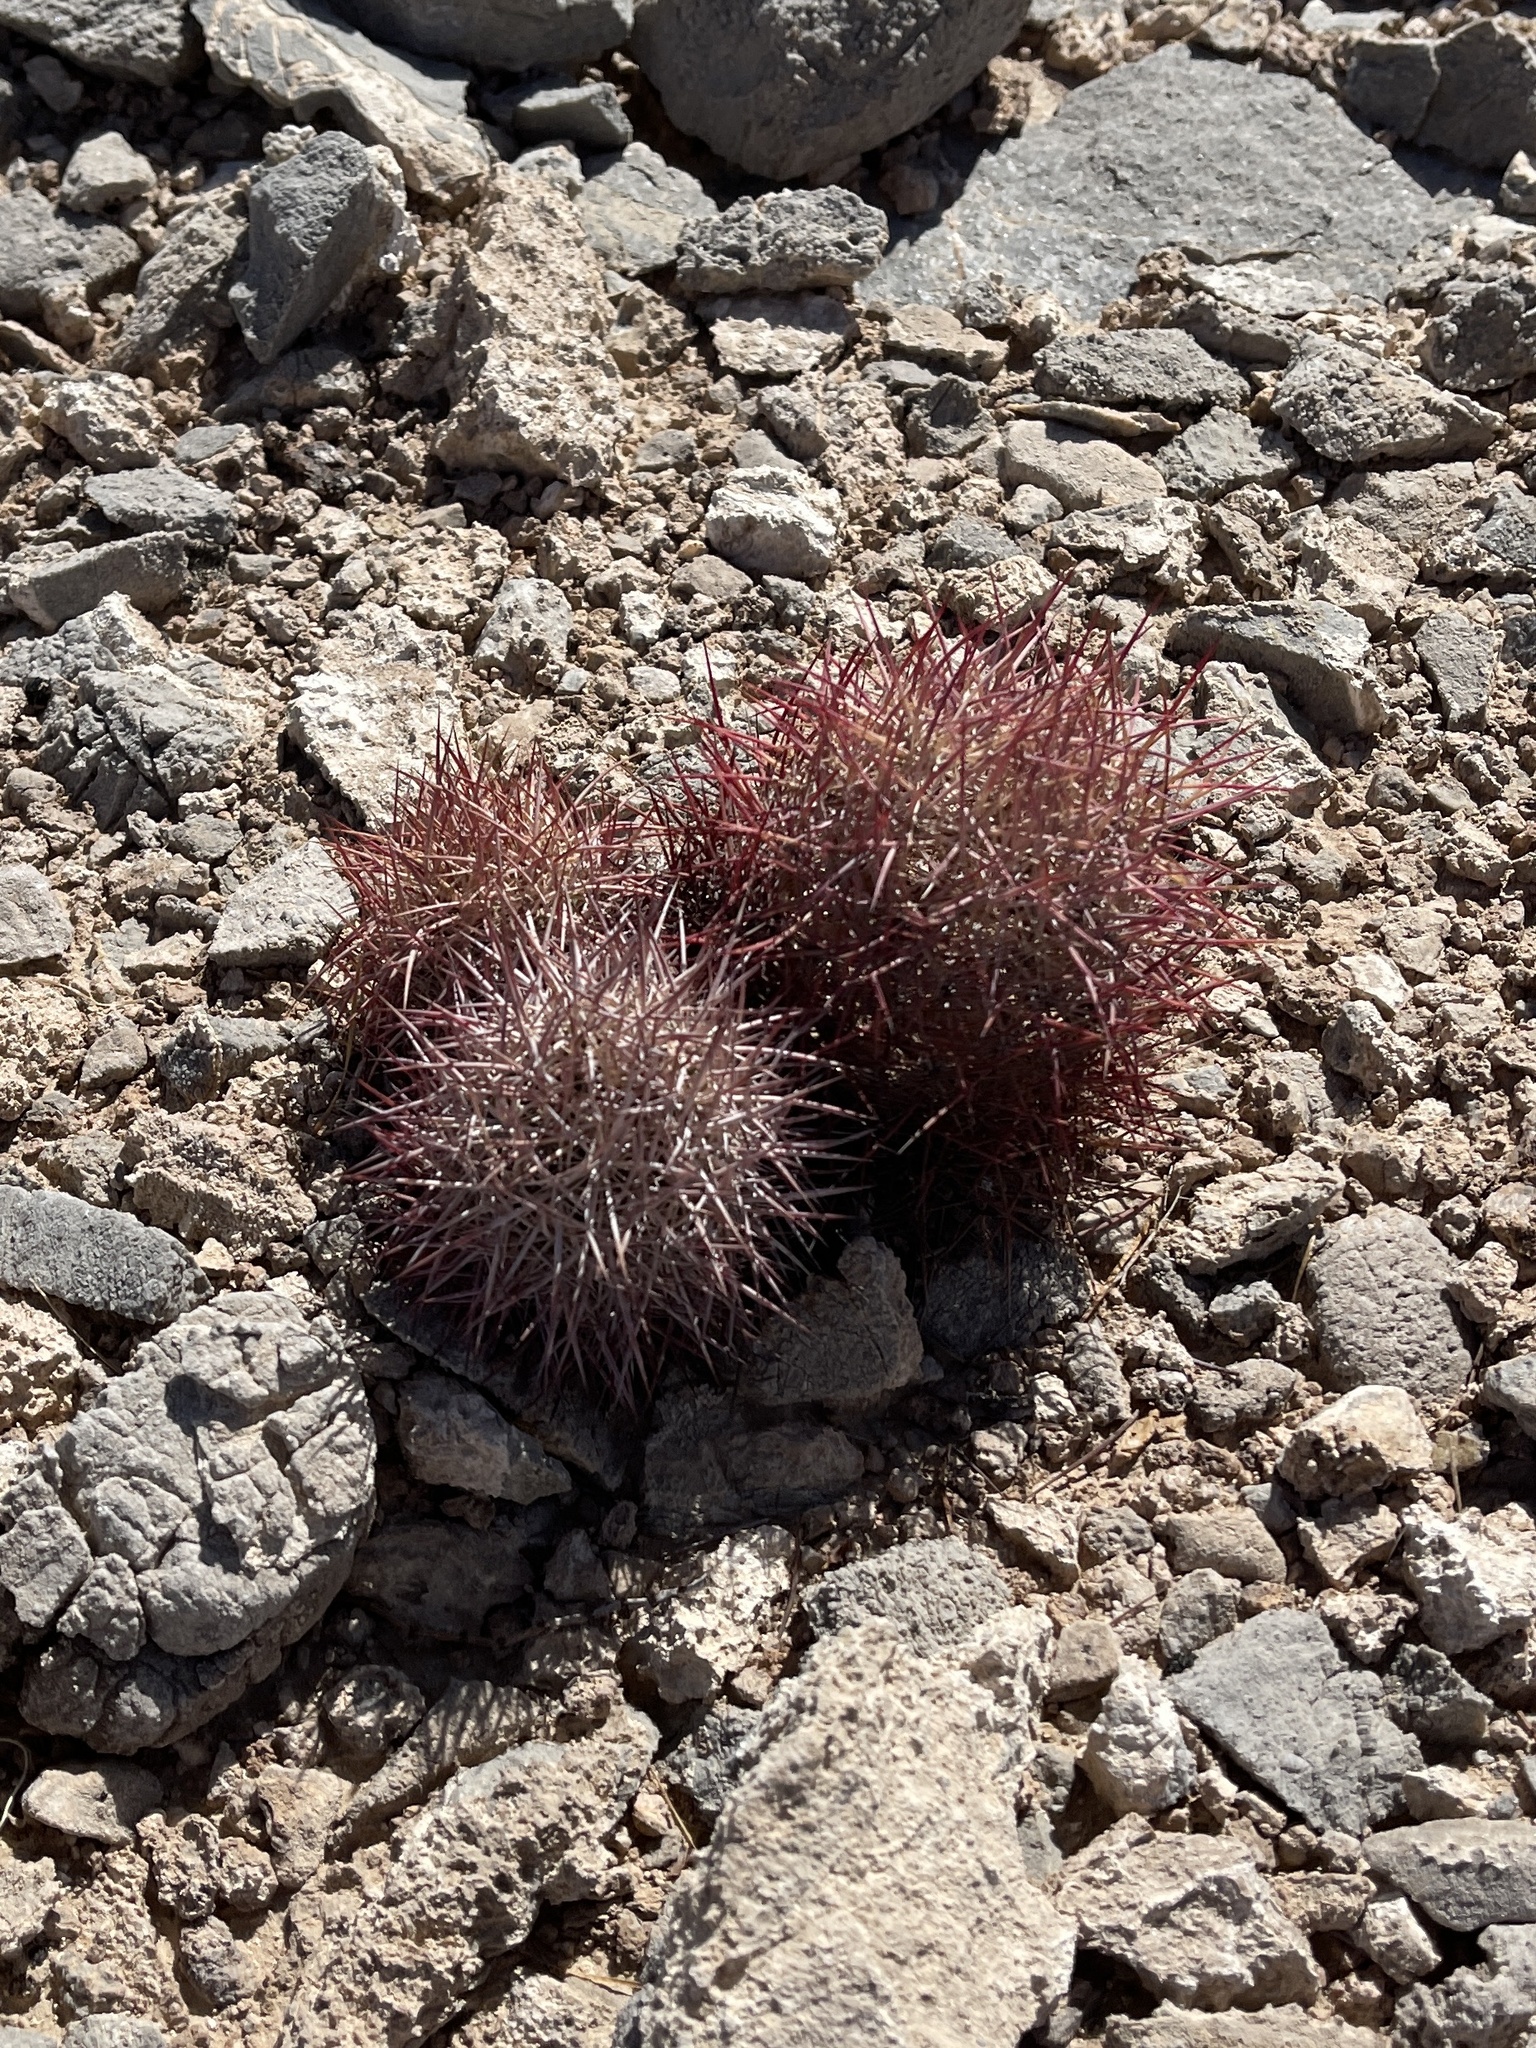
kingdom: Plantae
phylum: Tracheophyta
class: Magnoliopsida
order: Caryophyllales
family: Cactaceae
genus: Sclerocactus
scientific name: Sclerocactus johnsonii
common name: Eight-spine fishhook cactus
